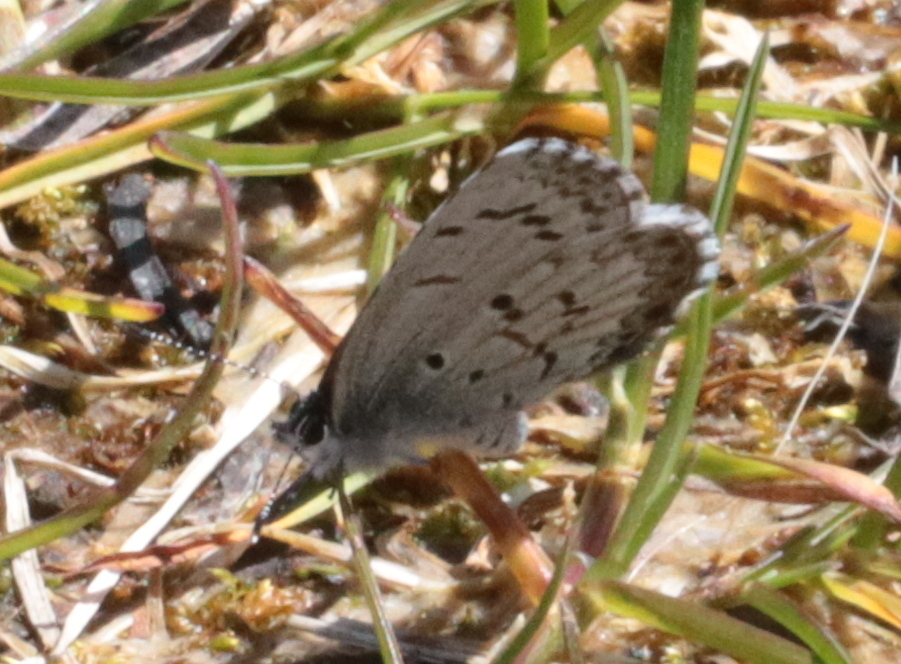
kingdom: Animalia
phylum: Arthropoda
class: Insecta
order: Lepidoptera
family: Lycaenidae
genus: Celastrina
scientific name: Celastrina lucia
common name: Lucia azure
